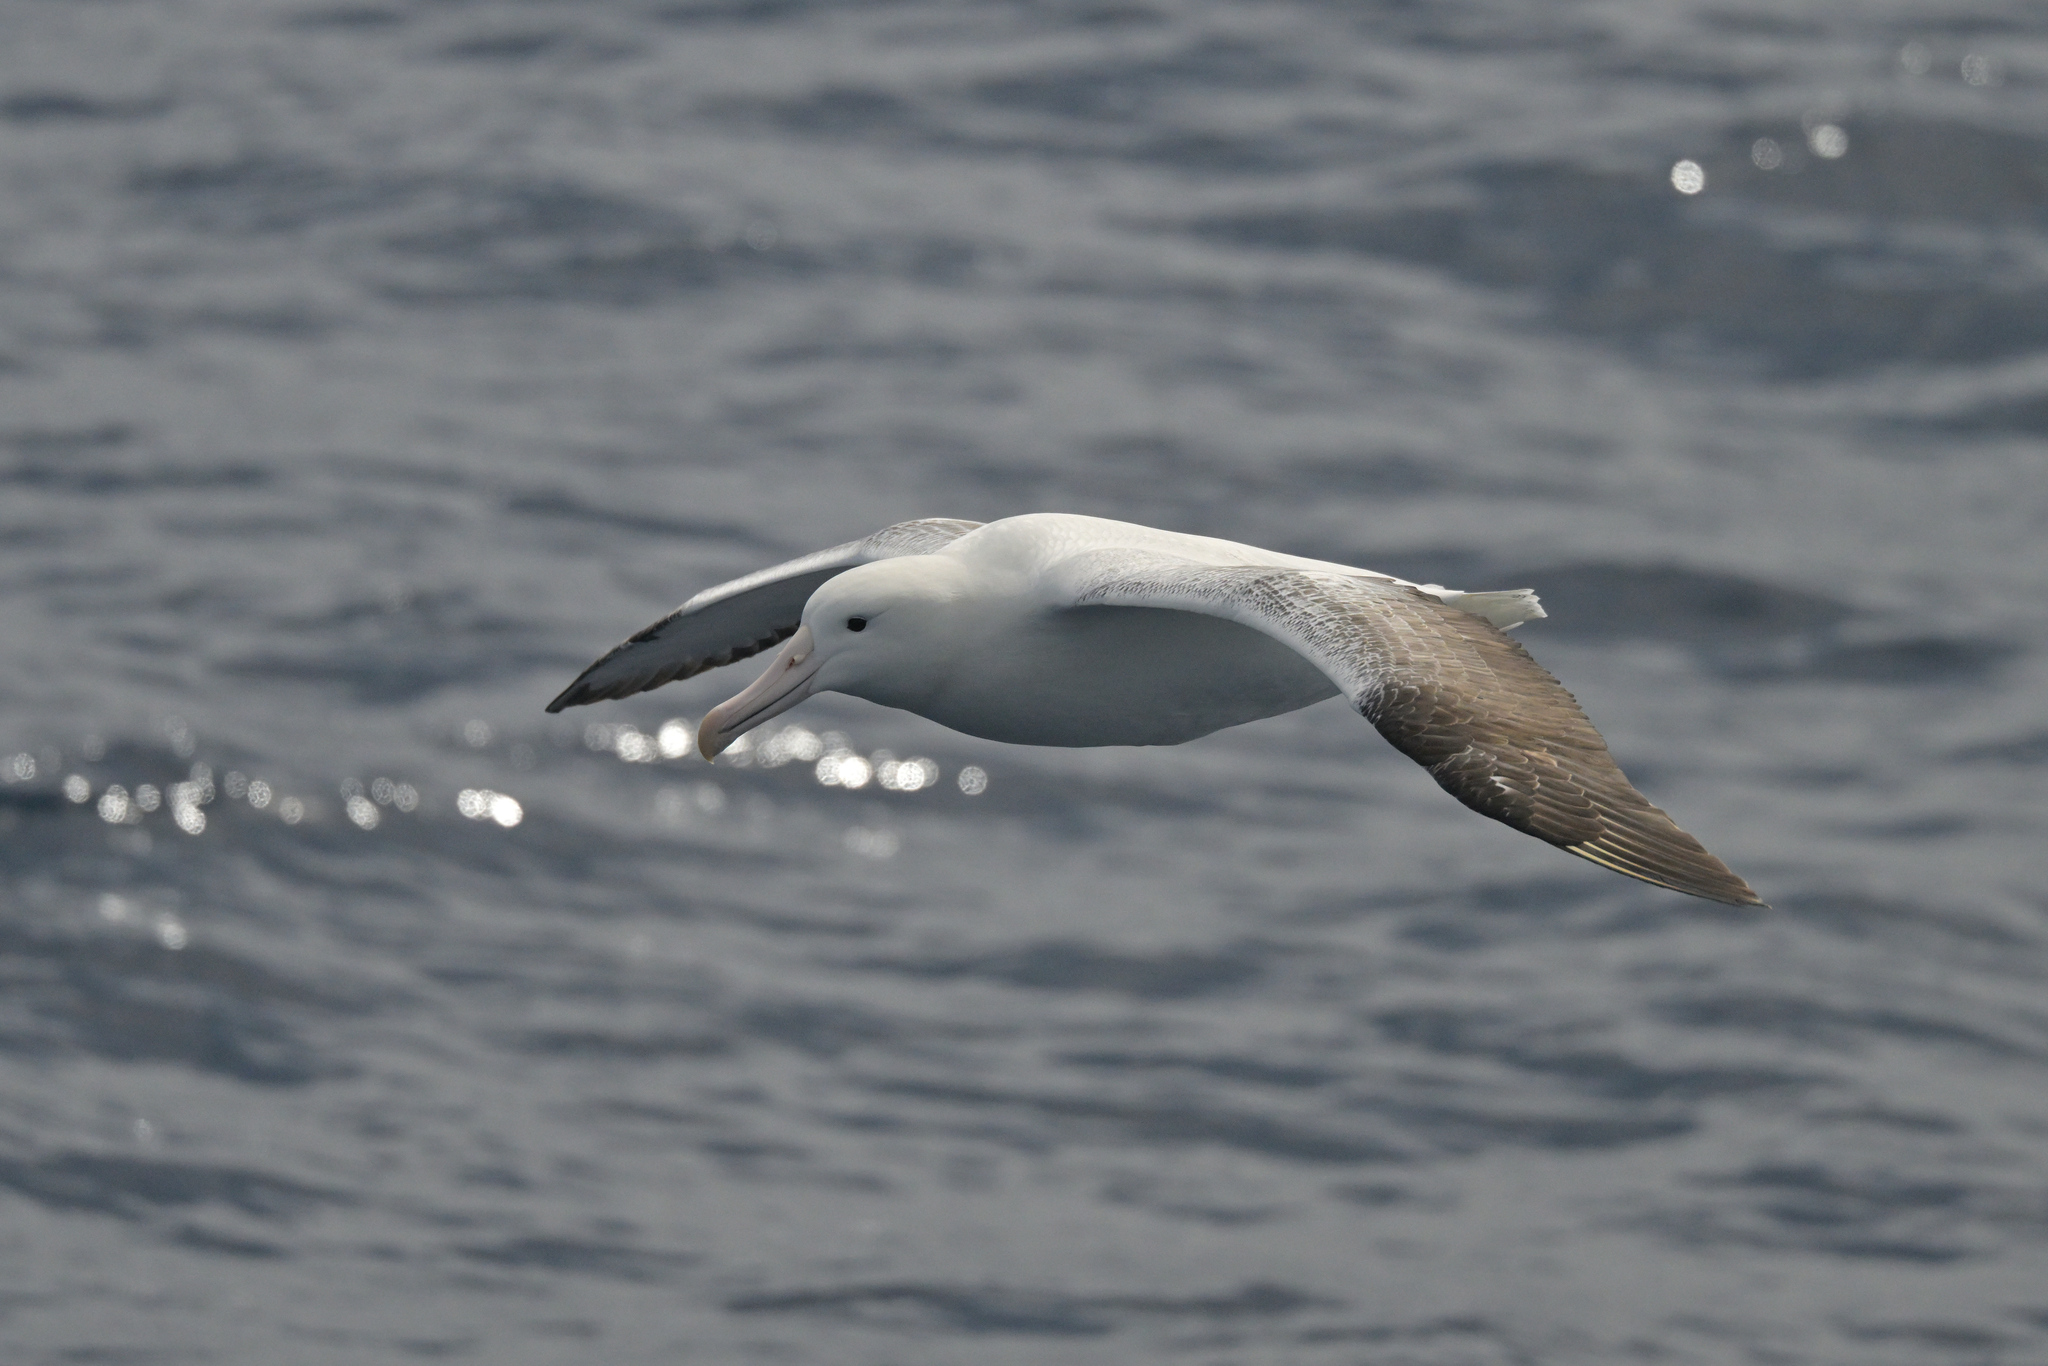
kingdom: Animalia
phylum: Chordata
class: Aves
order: Procellariiformes
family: Diomedeidae
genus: Diomedea
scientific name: Diomedea epomophora
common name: Southern royal albatross
